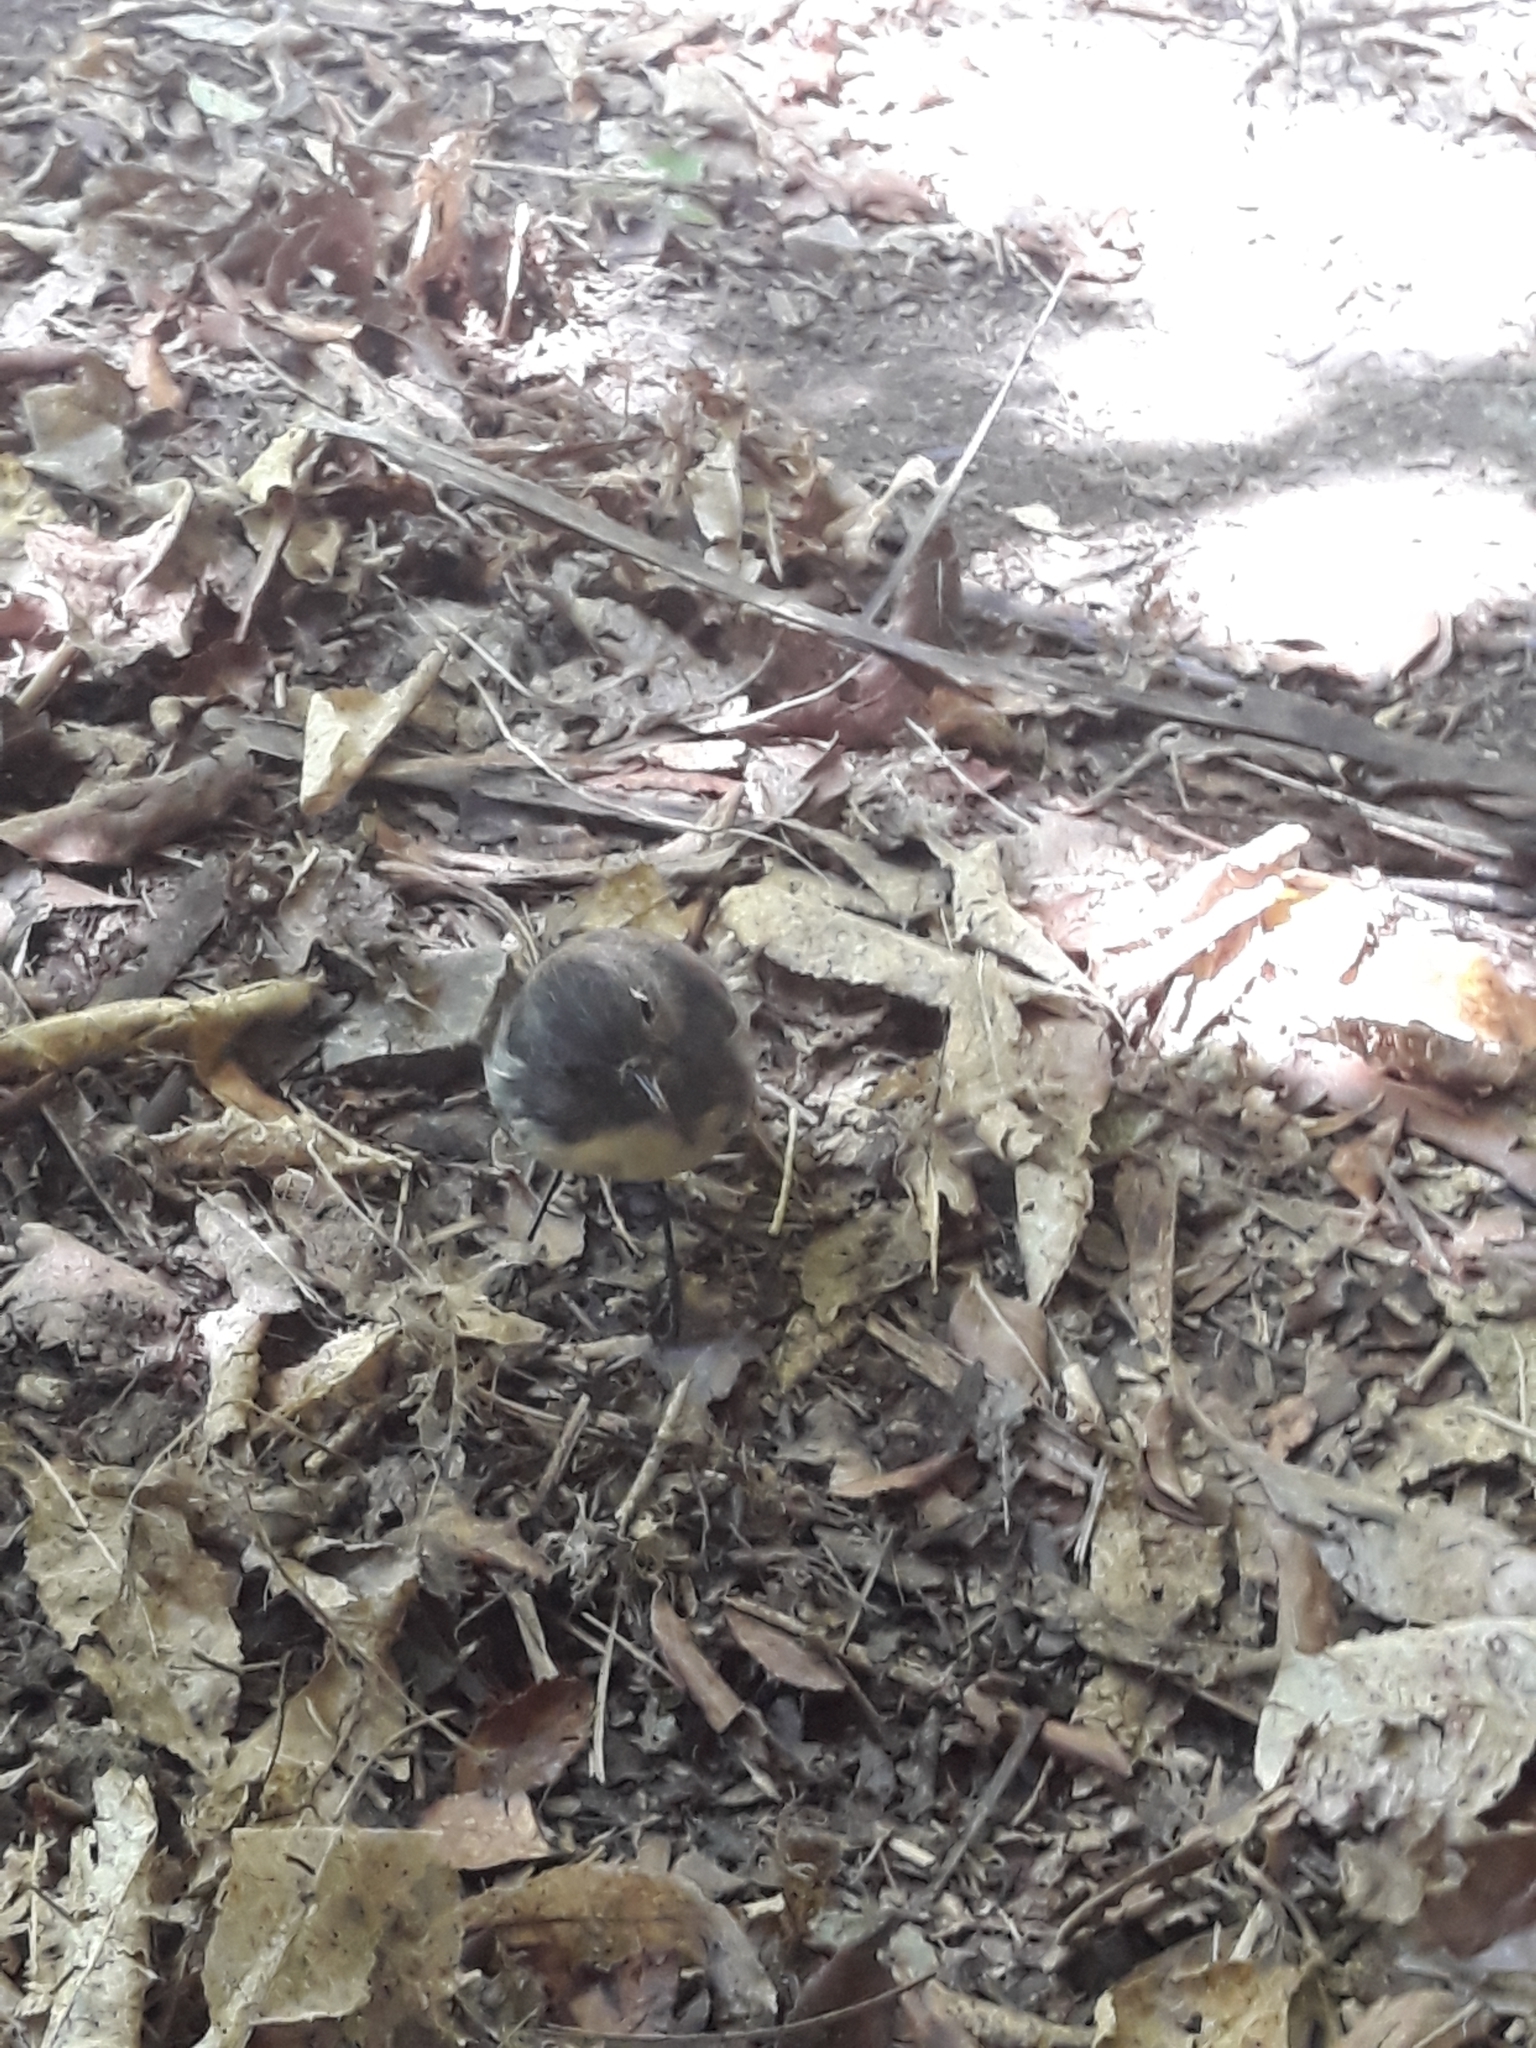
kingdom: Animalia
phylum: Chordata
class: Aves
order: Passeriformes
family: Petroicidae
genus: Petroica
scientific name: Petroica australis
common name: New zealand robin
